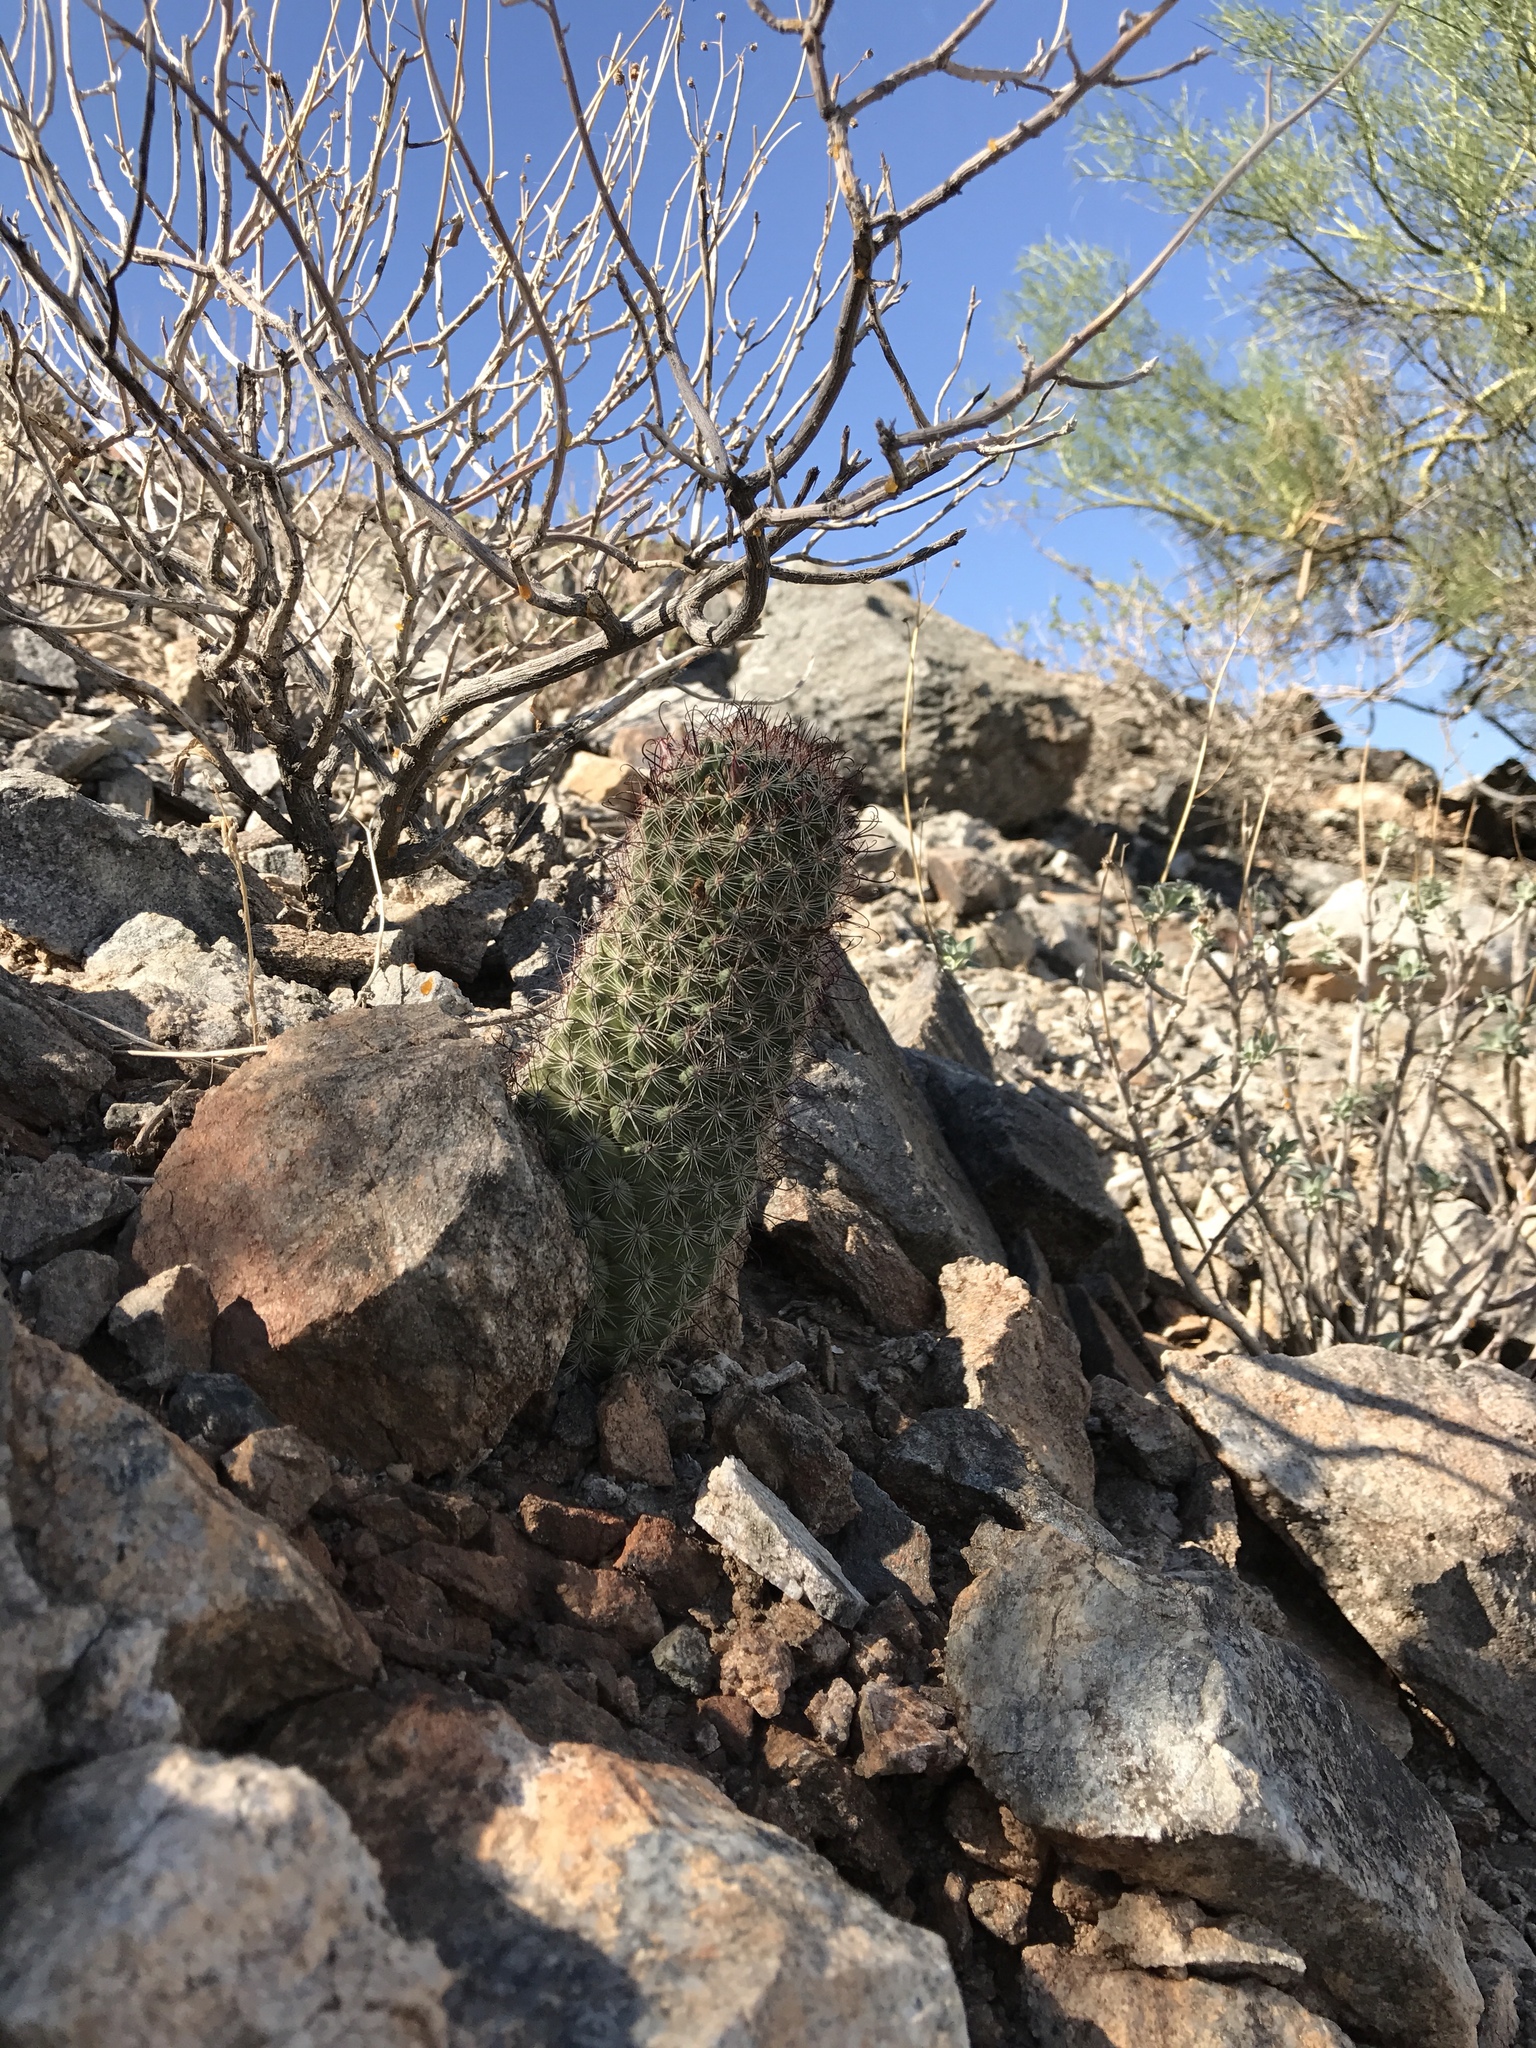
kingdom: Plantae
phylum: Tracheophyta
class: Magnoliopsida
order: Caryophyllales
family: Cactaceae
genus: Cochemiea
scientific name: Cochemiea grahamii
